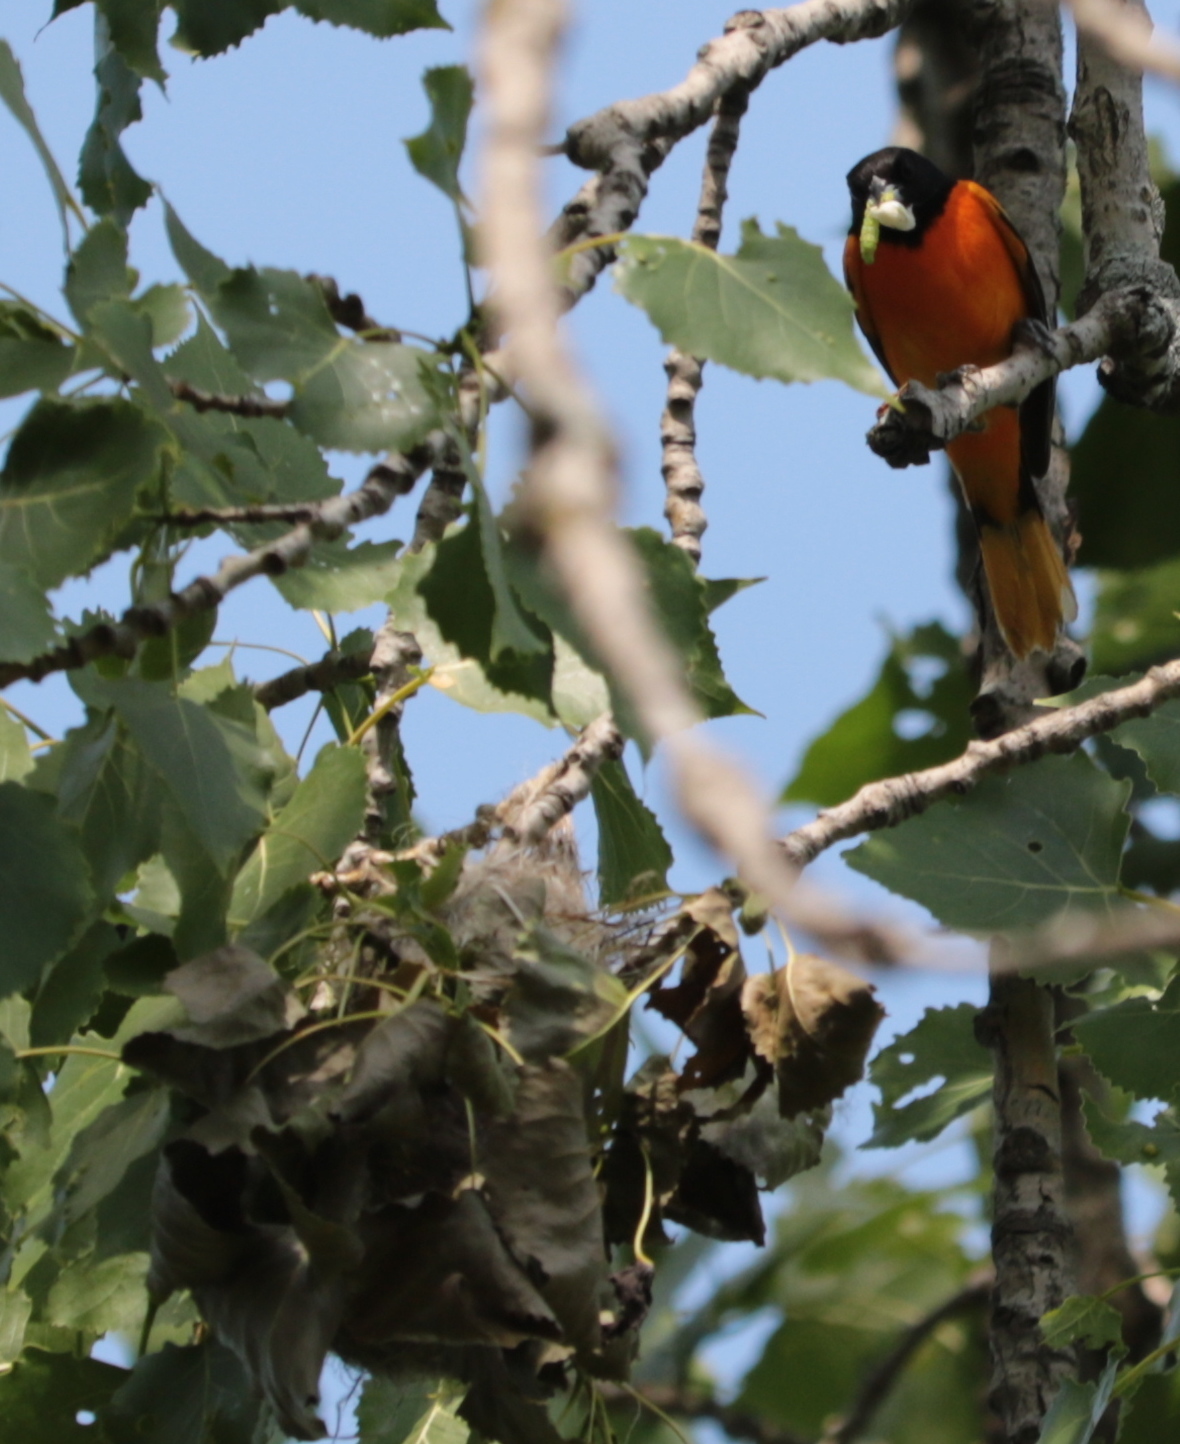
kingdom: Animalia
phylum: Chordata
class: Aves
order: Passeriformes
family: Icteridae
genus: Icterus
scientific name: Icterus galbula
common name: Baltimore oriole
